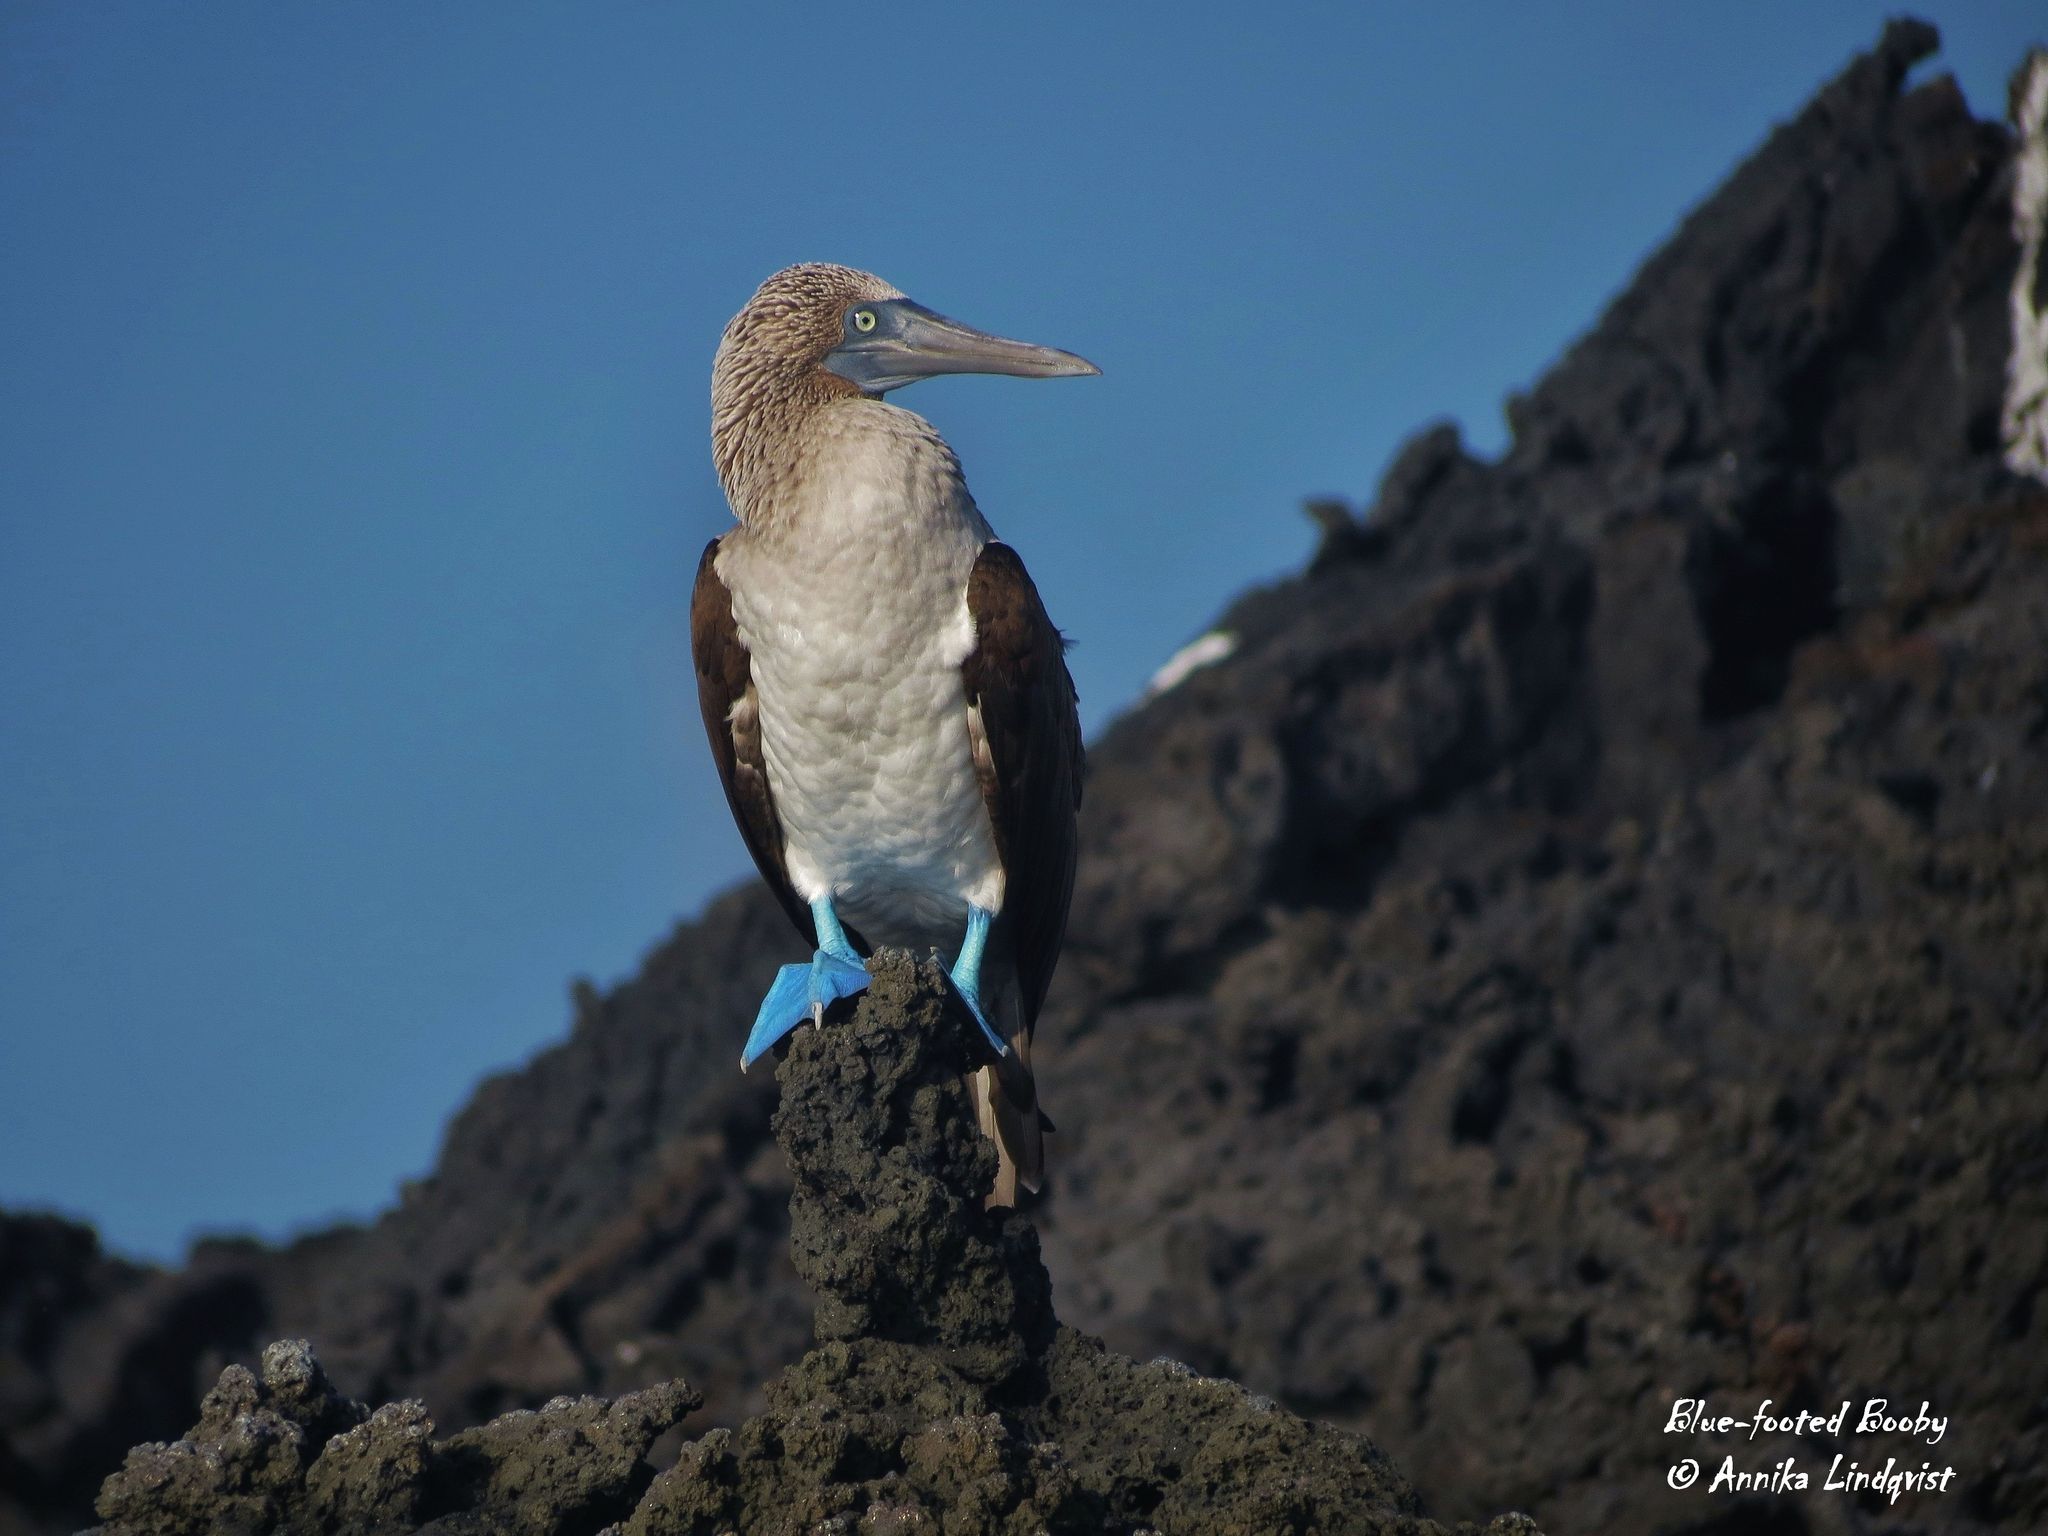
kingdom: Animalia
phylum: Chordata
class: Aves
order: Suliformes
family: Sulidae
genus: Sula
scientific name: Sula nebouxii
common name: Blue-footed booby
